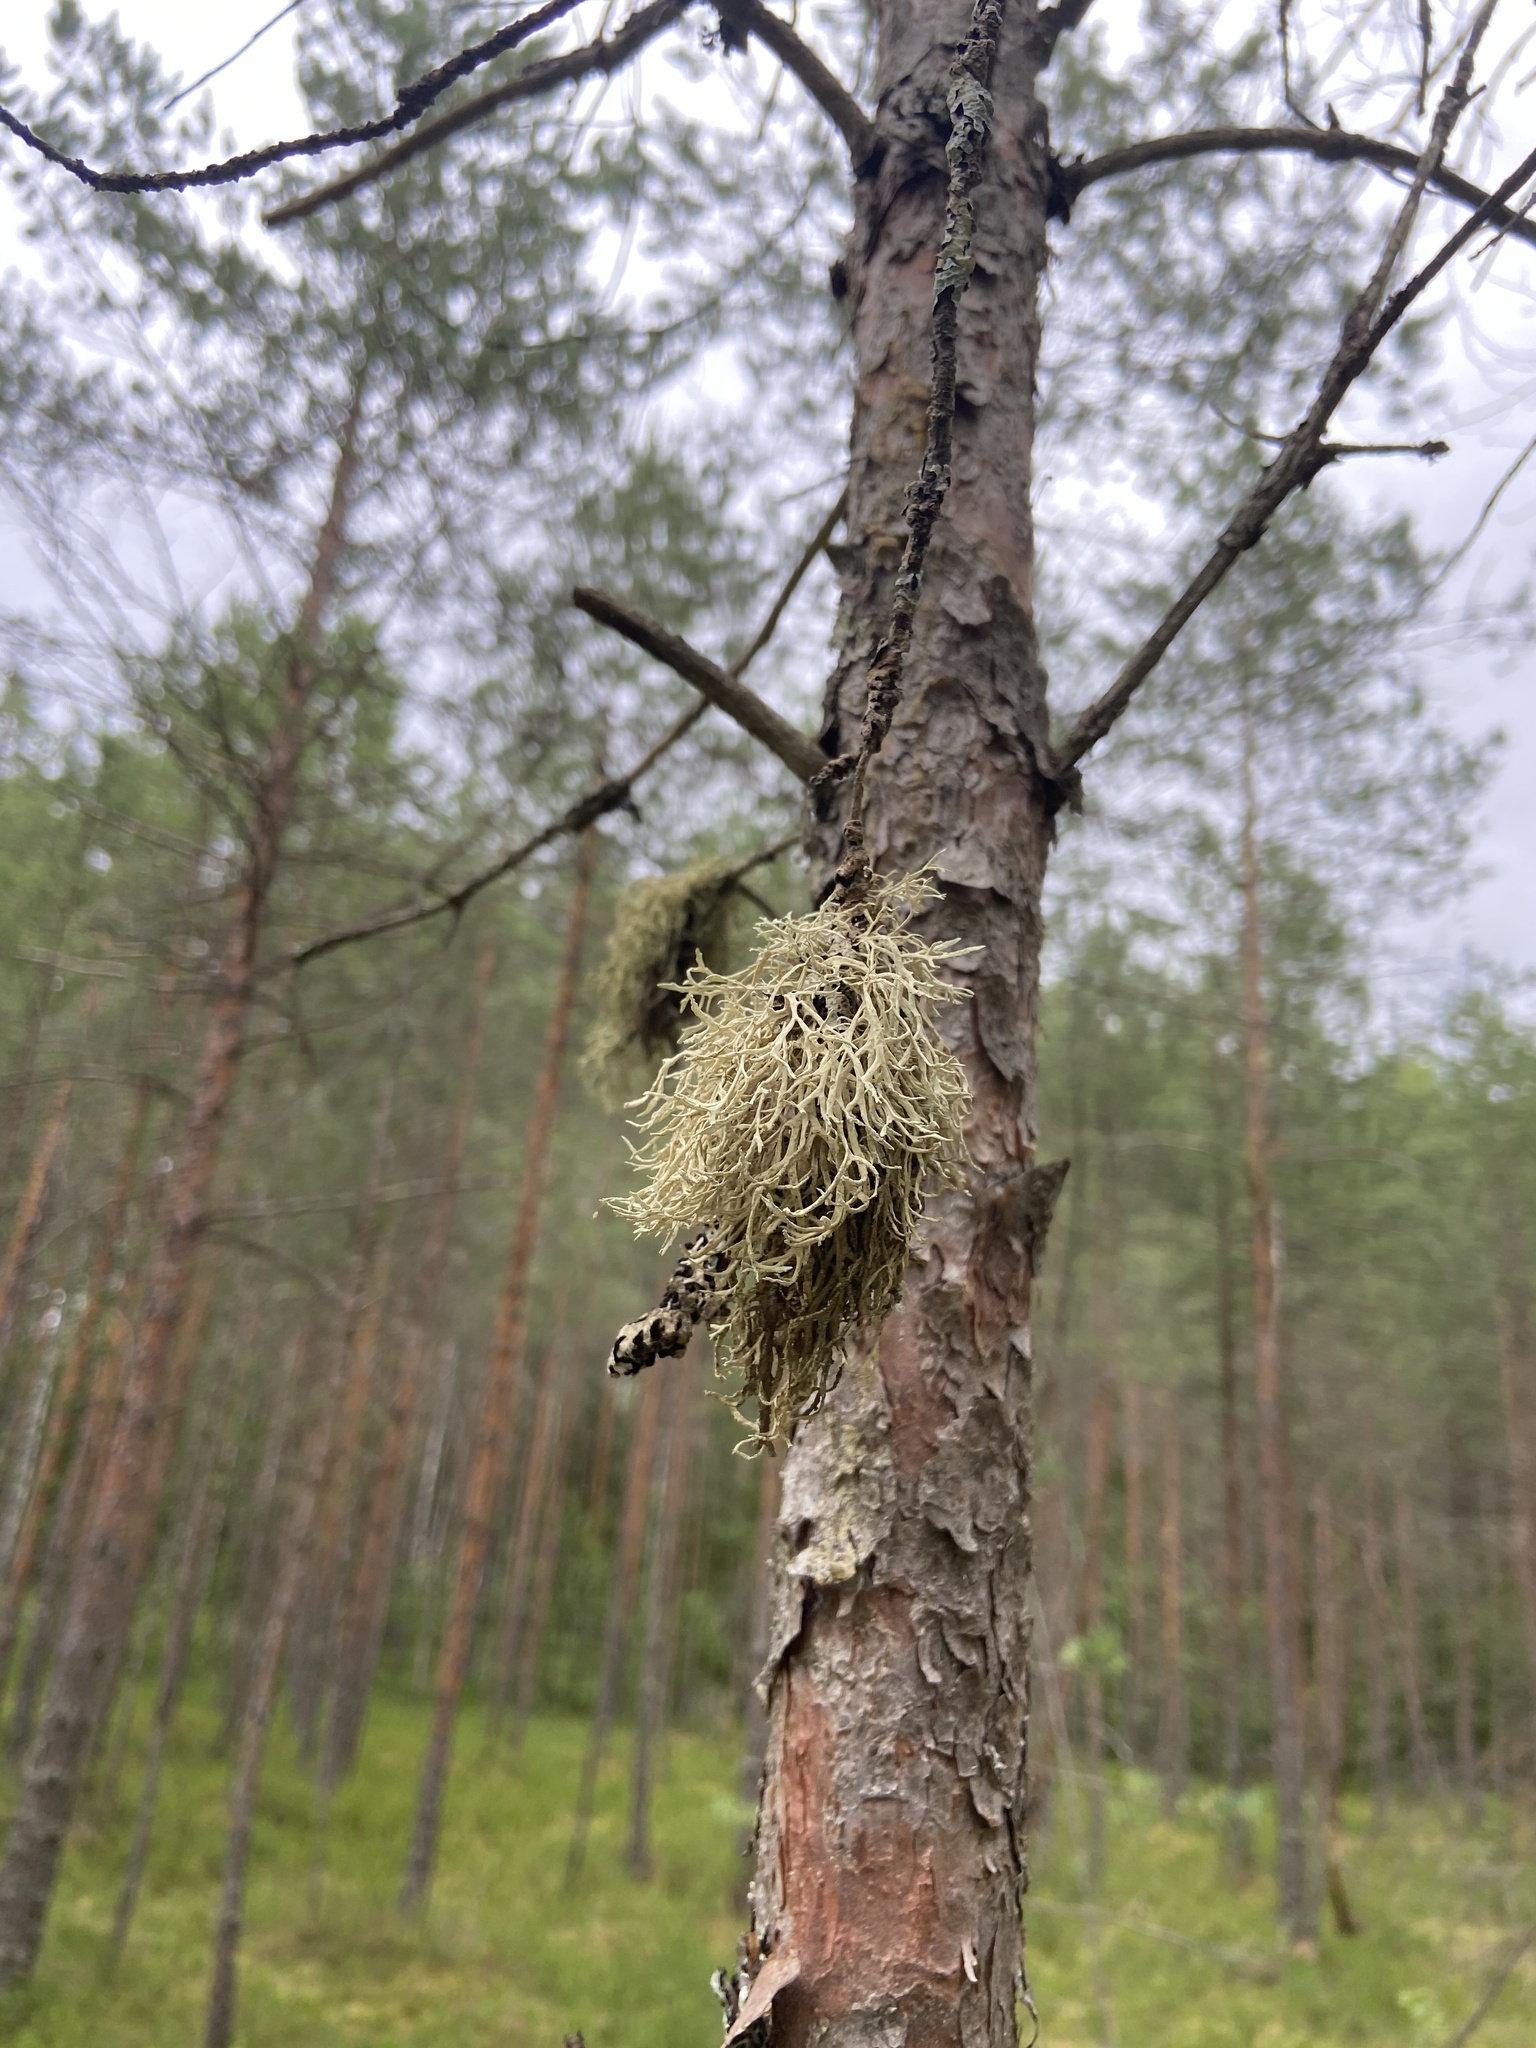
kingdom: Fungi
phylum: Ascomycota
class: Lecanoromycetes
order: Lecanorales
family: Parmeliaceae
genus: Evernia
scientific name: Evernia mesomorpha
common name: Boreal oak moss lichen
